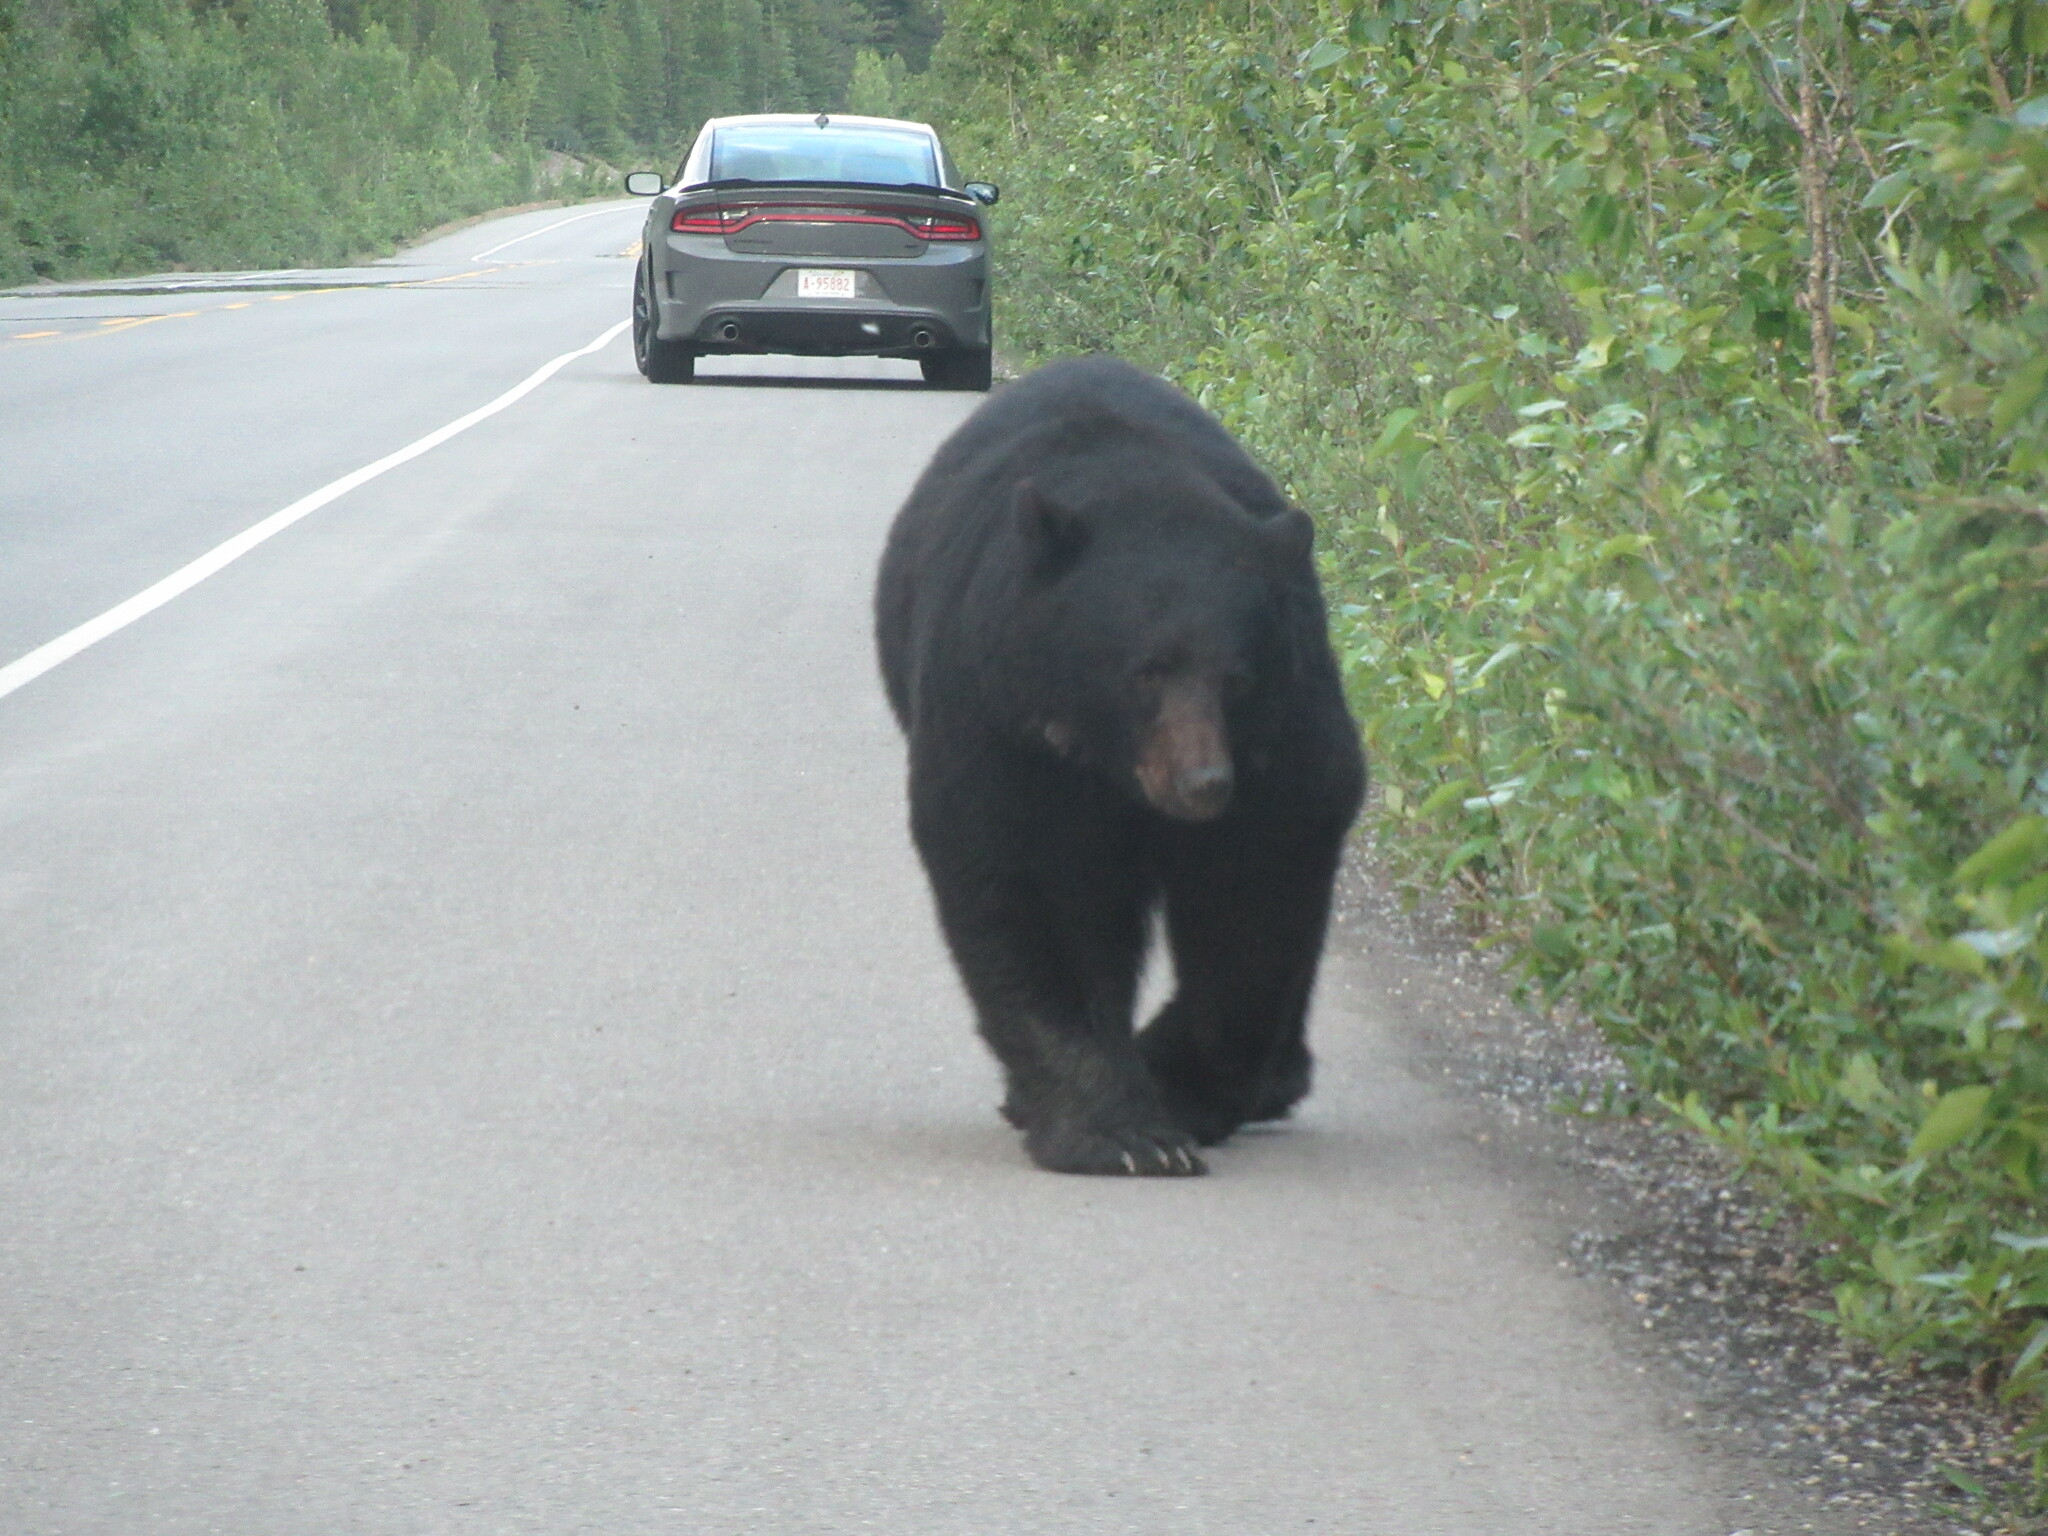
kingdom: Animalia
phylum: Chordata
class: Mammalia
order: Carnivora
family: Ursidae
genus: Ursus
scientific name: Ursus americanus
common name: American black bear
